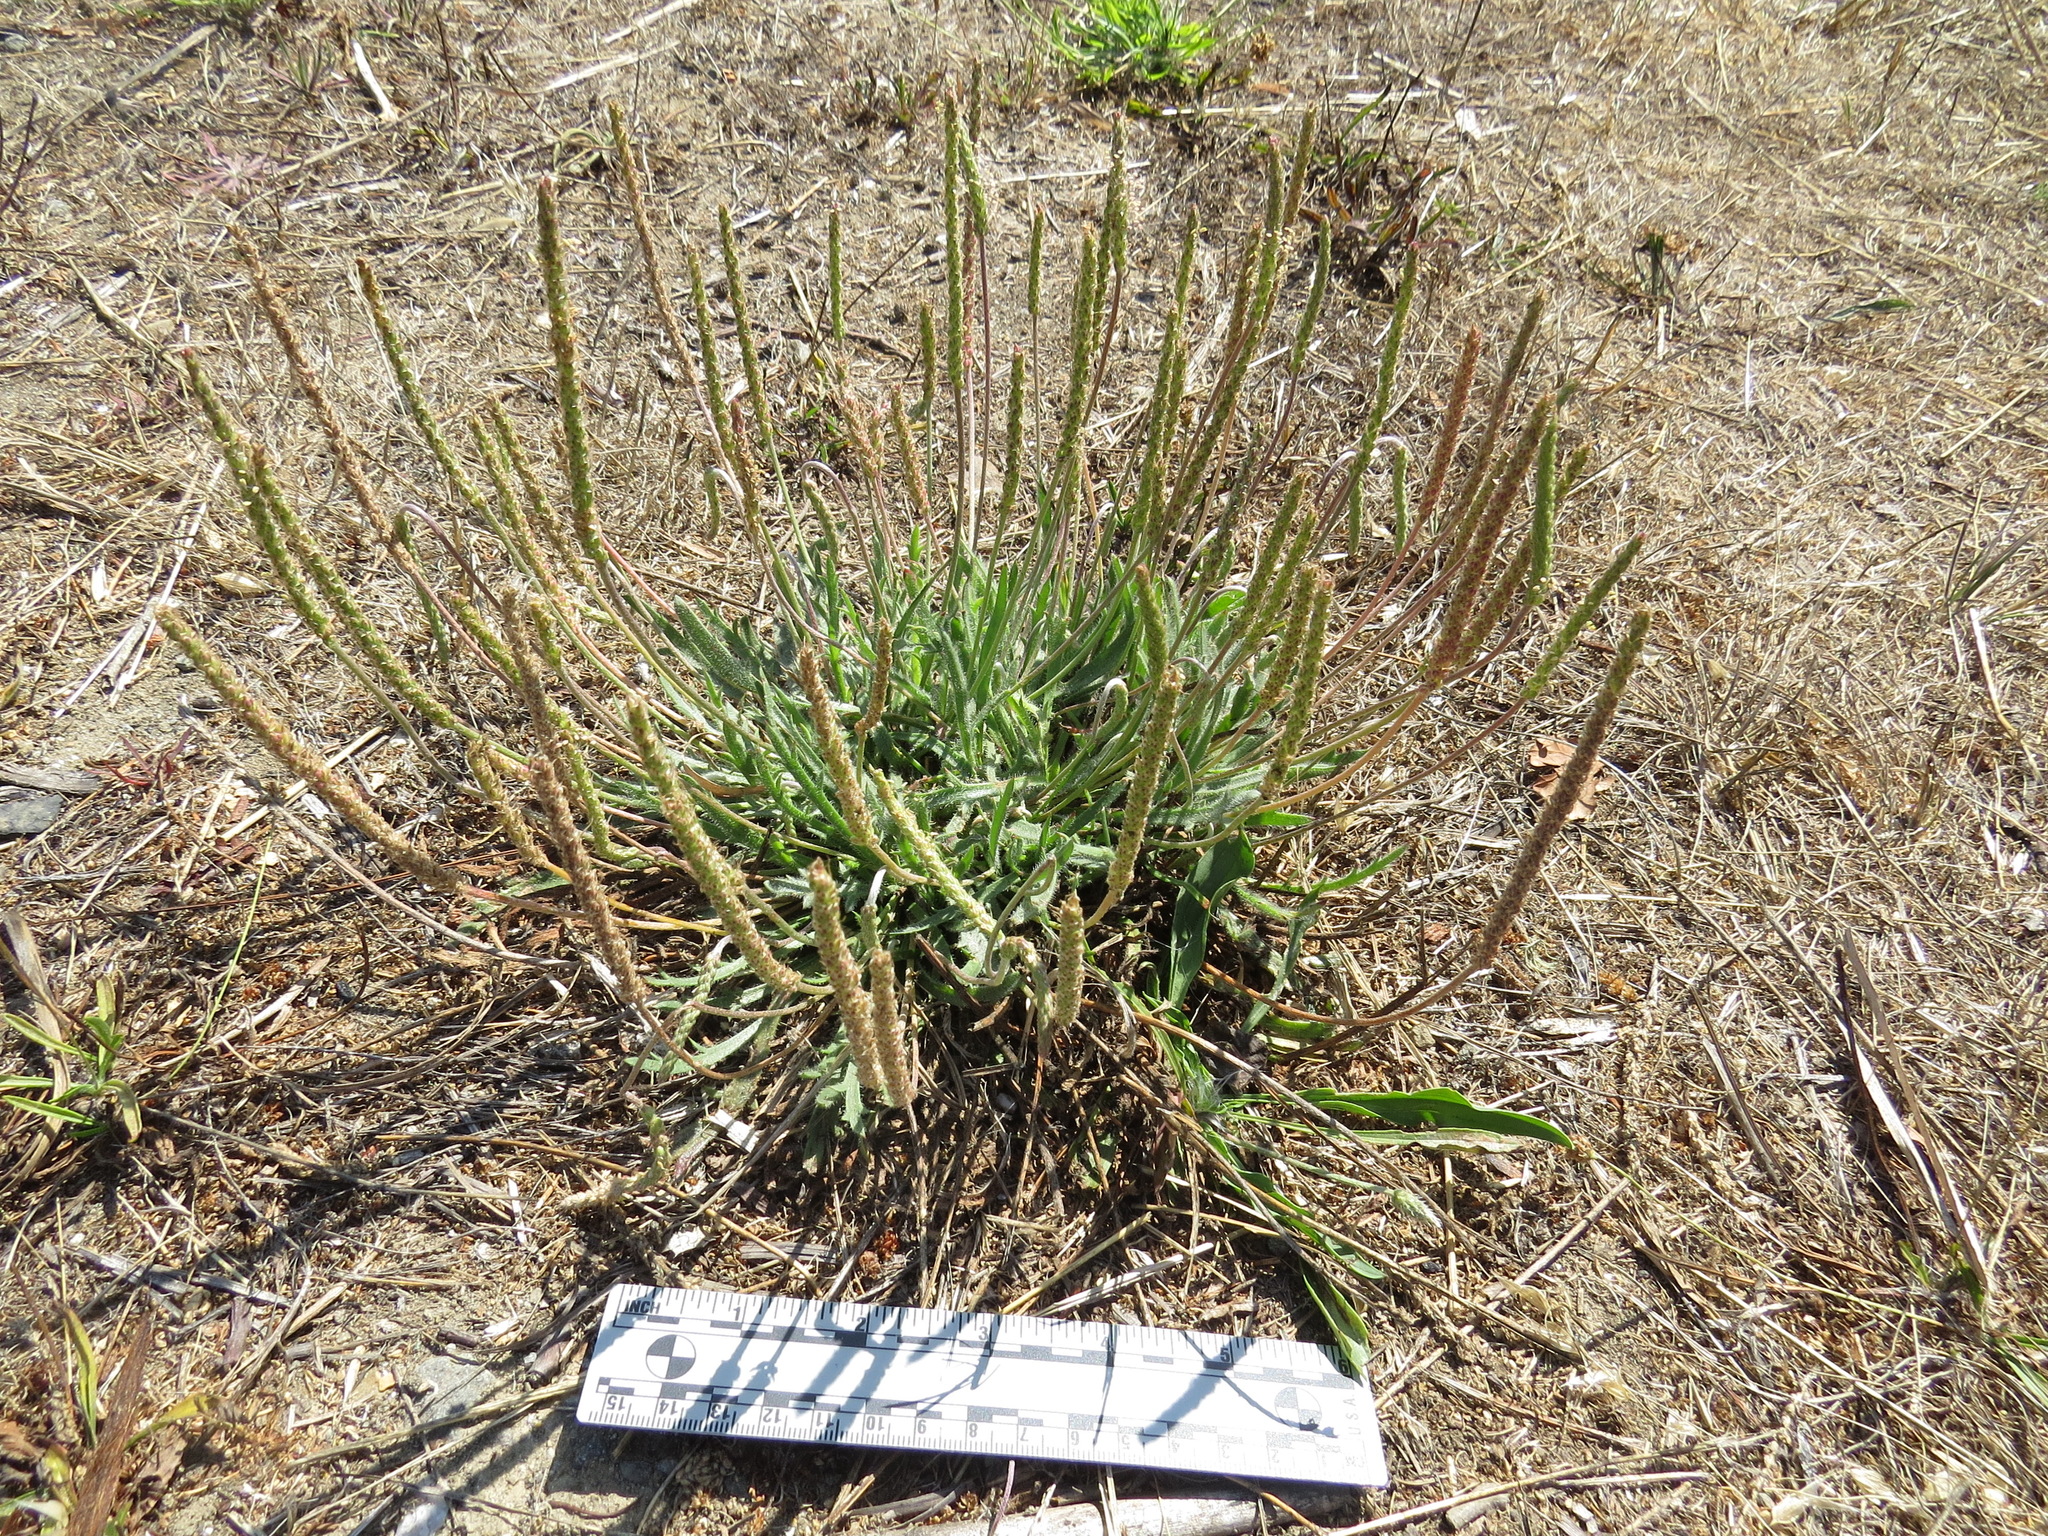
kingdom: Plantae
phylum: Tracheophyta
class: Magnoliopsida
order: Lamiales
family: Plantaginaceae
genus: Plantago
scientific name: Plantago coronopus
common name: Buck's-horn plantain
